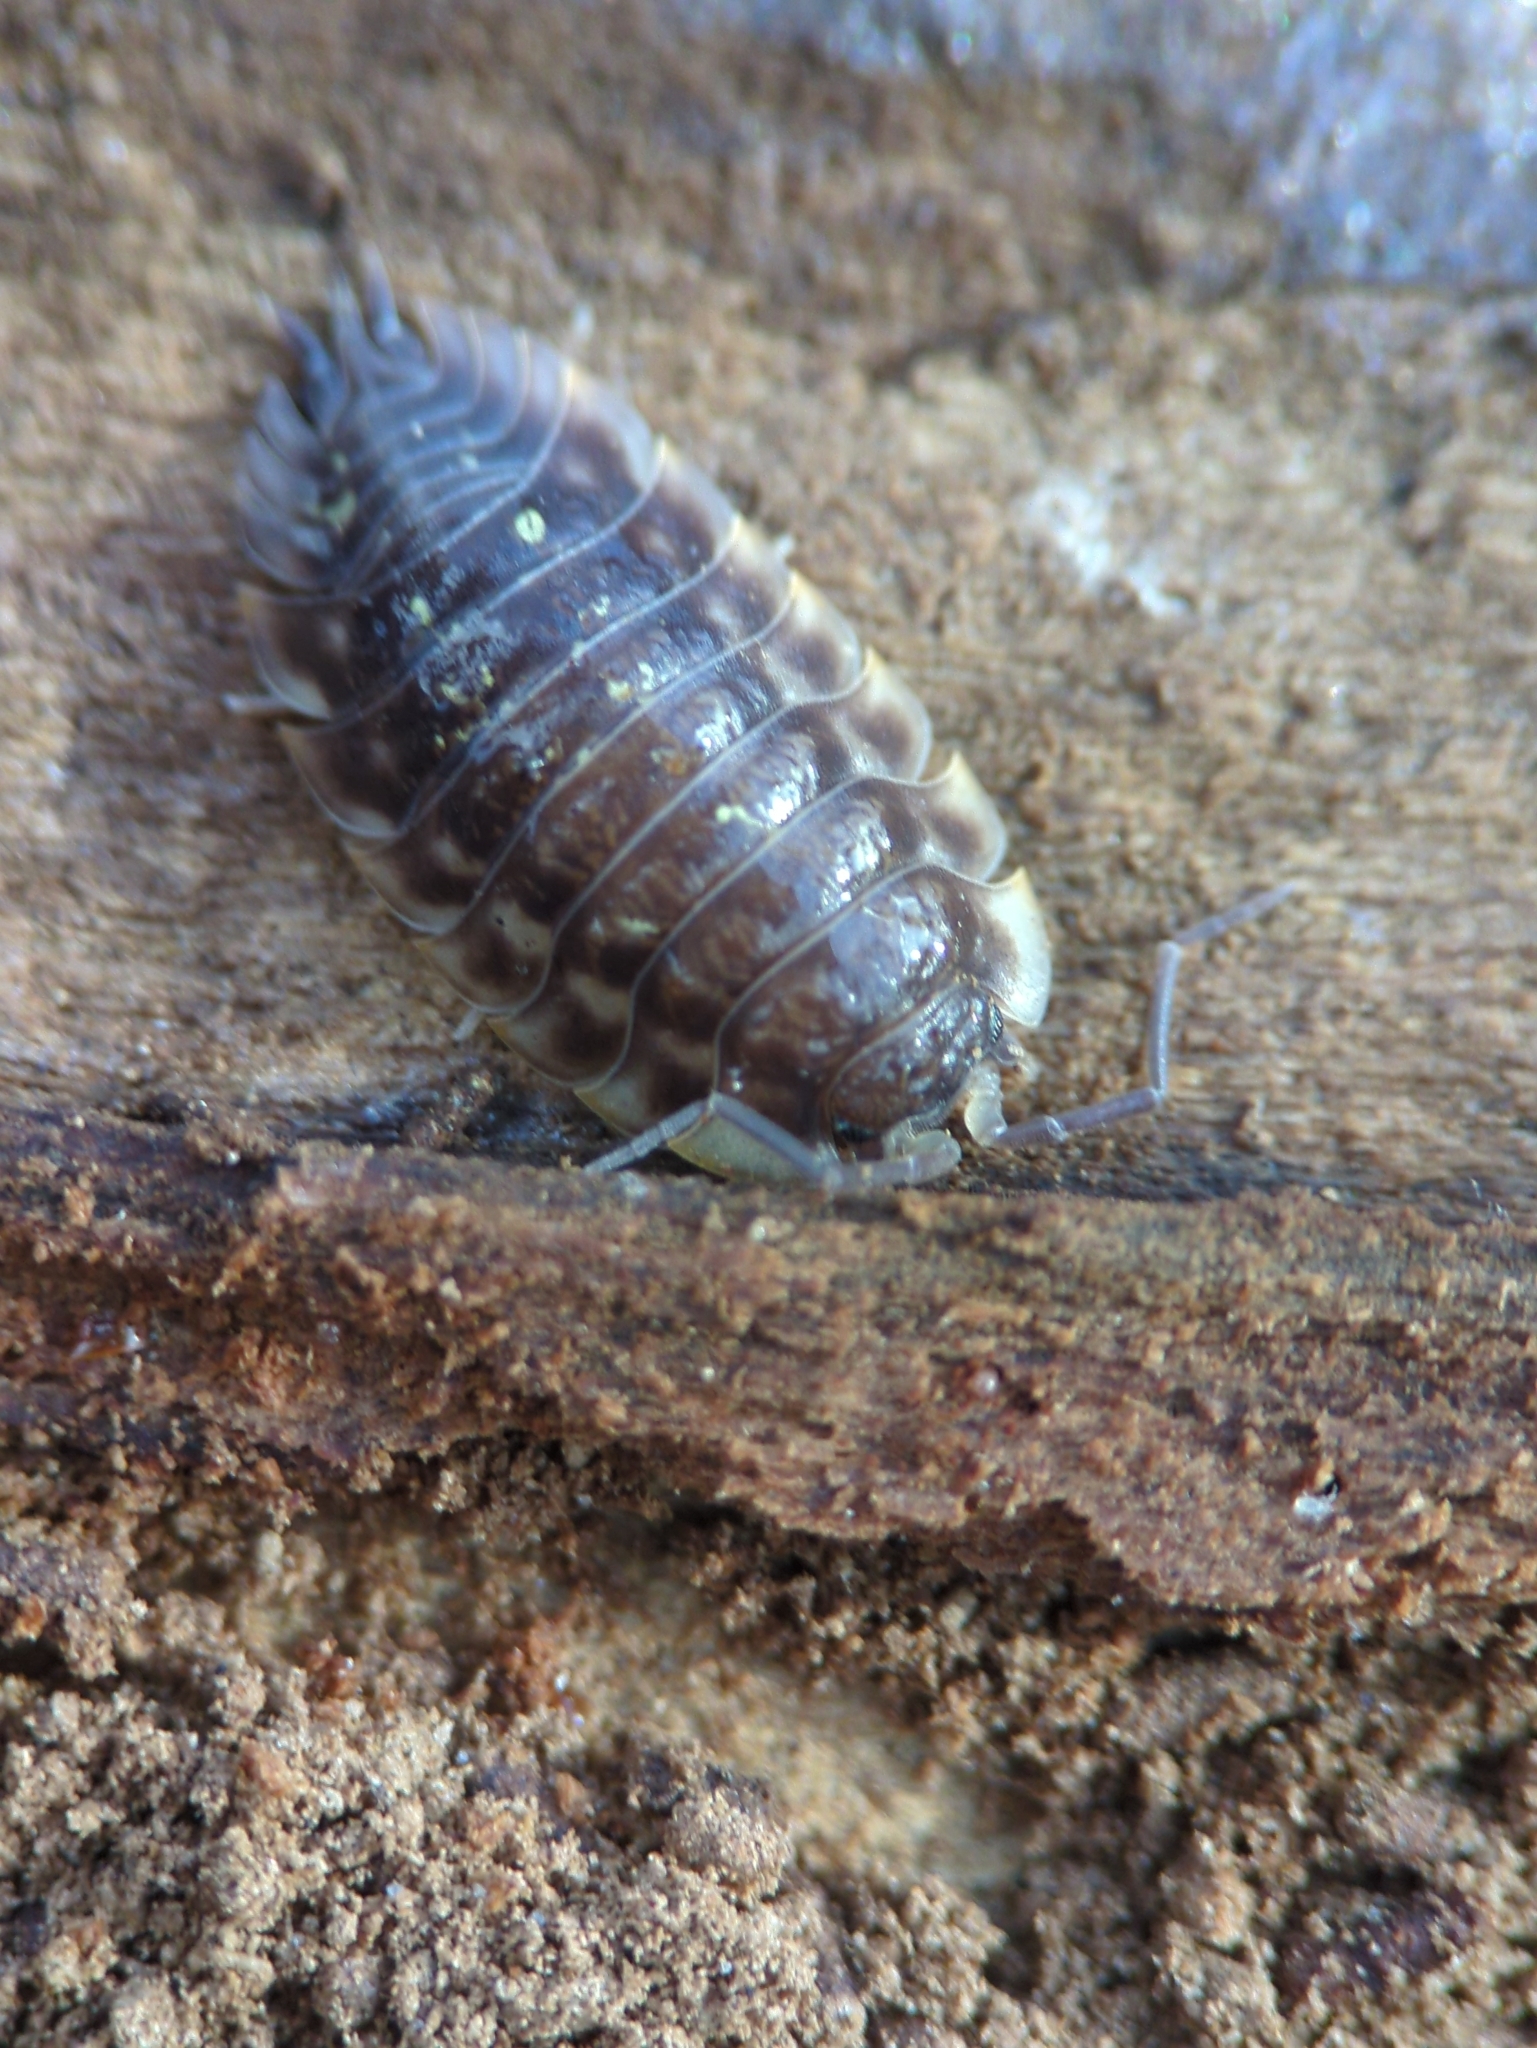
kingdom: Animalia
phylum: Arthropoda
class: Malacostraca
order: Isopoda
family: Oniscidae
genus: Oniscus
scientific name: Oniscus asellus
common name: Common shiny woodlouse
